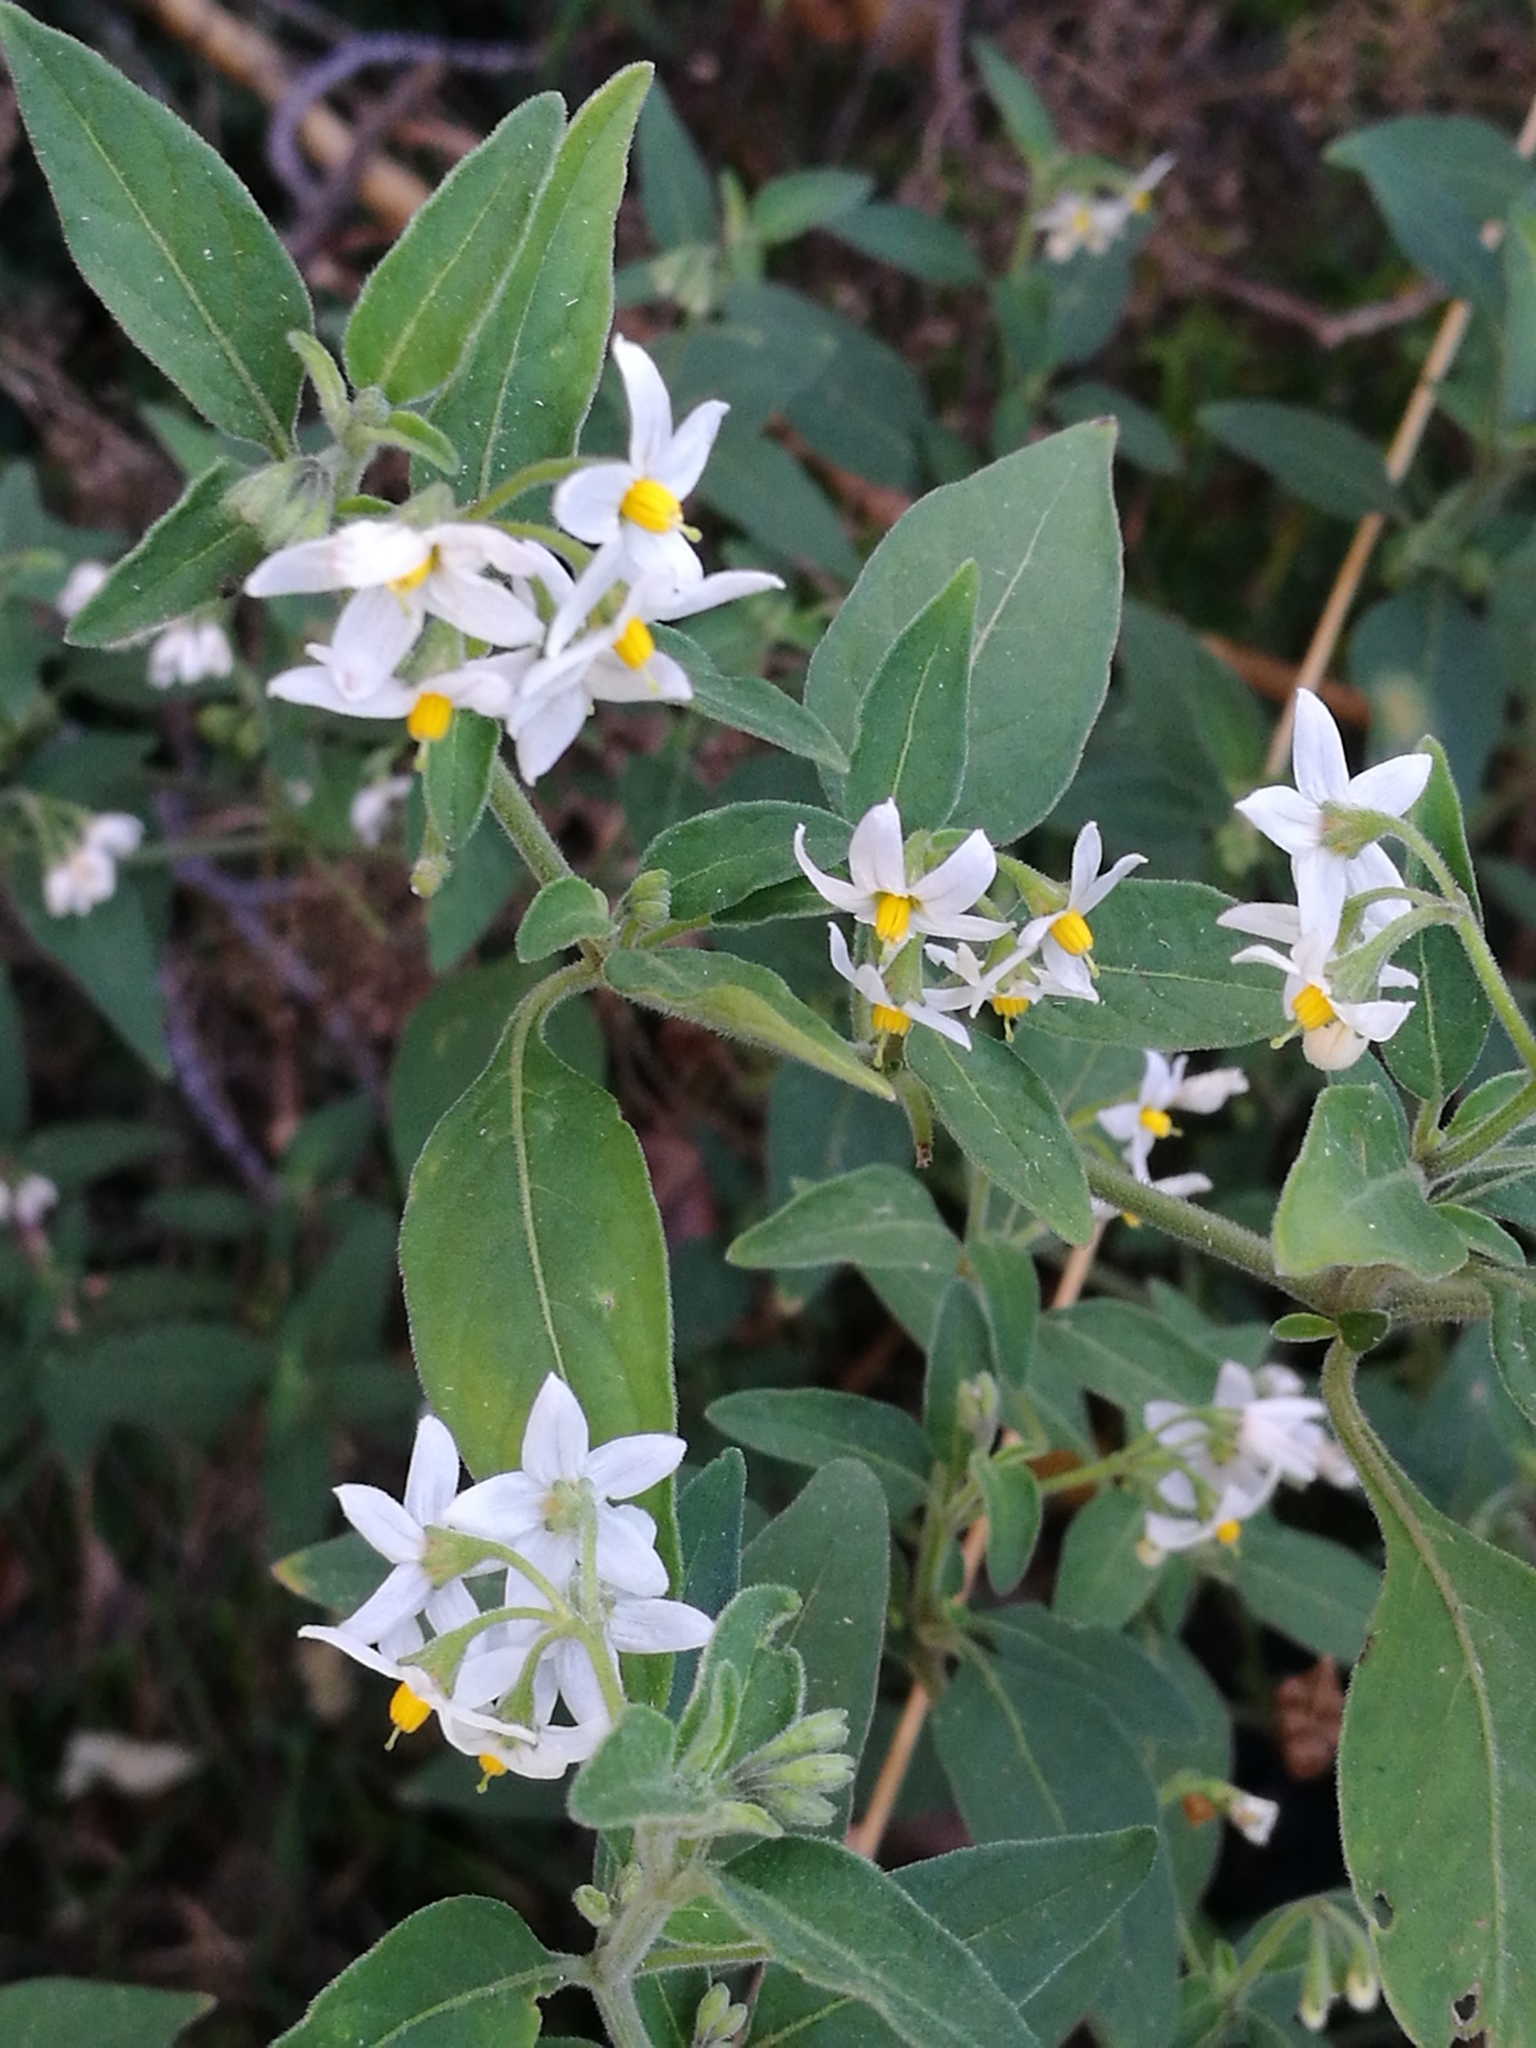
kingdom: Plantae
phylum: Tracheophyta
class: Magnoliopsida
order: Solanales
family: Solanaceae
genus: Solanum
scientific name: Solanum chenopodioides
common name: Tall nightshade
